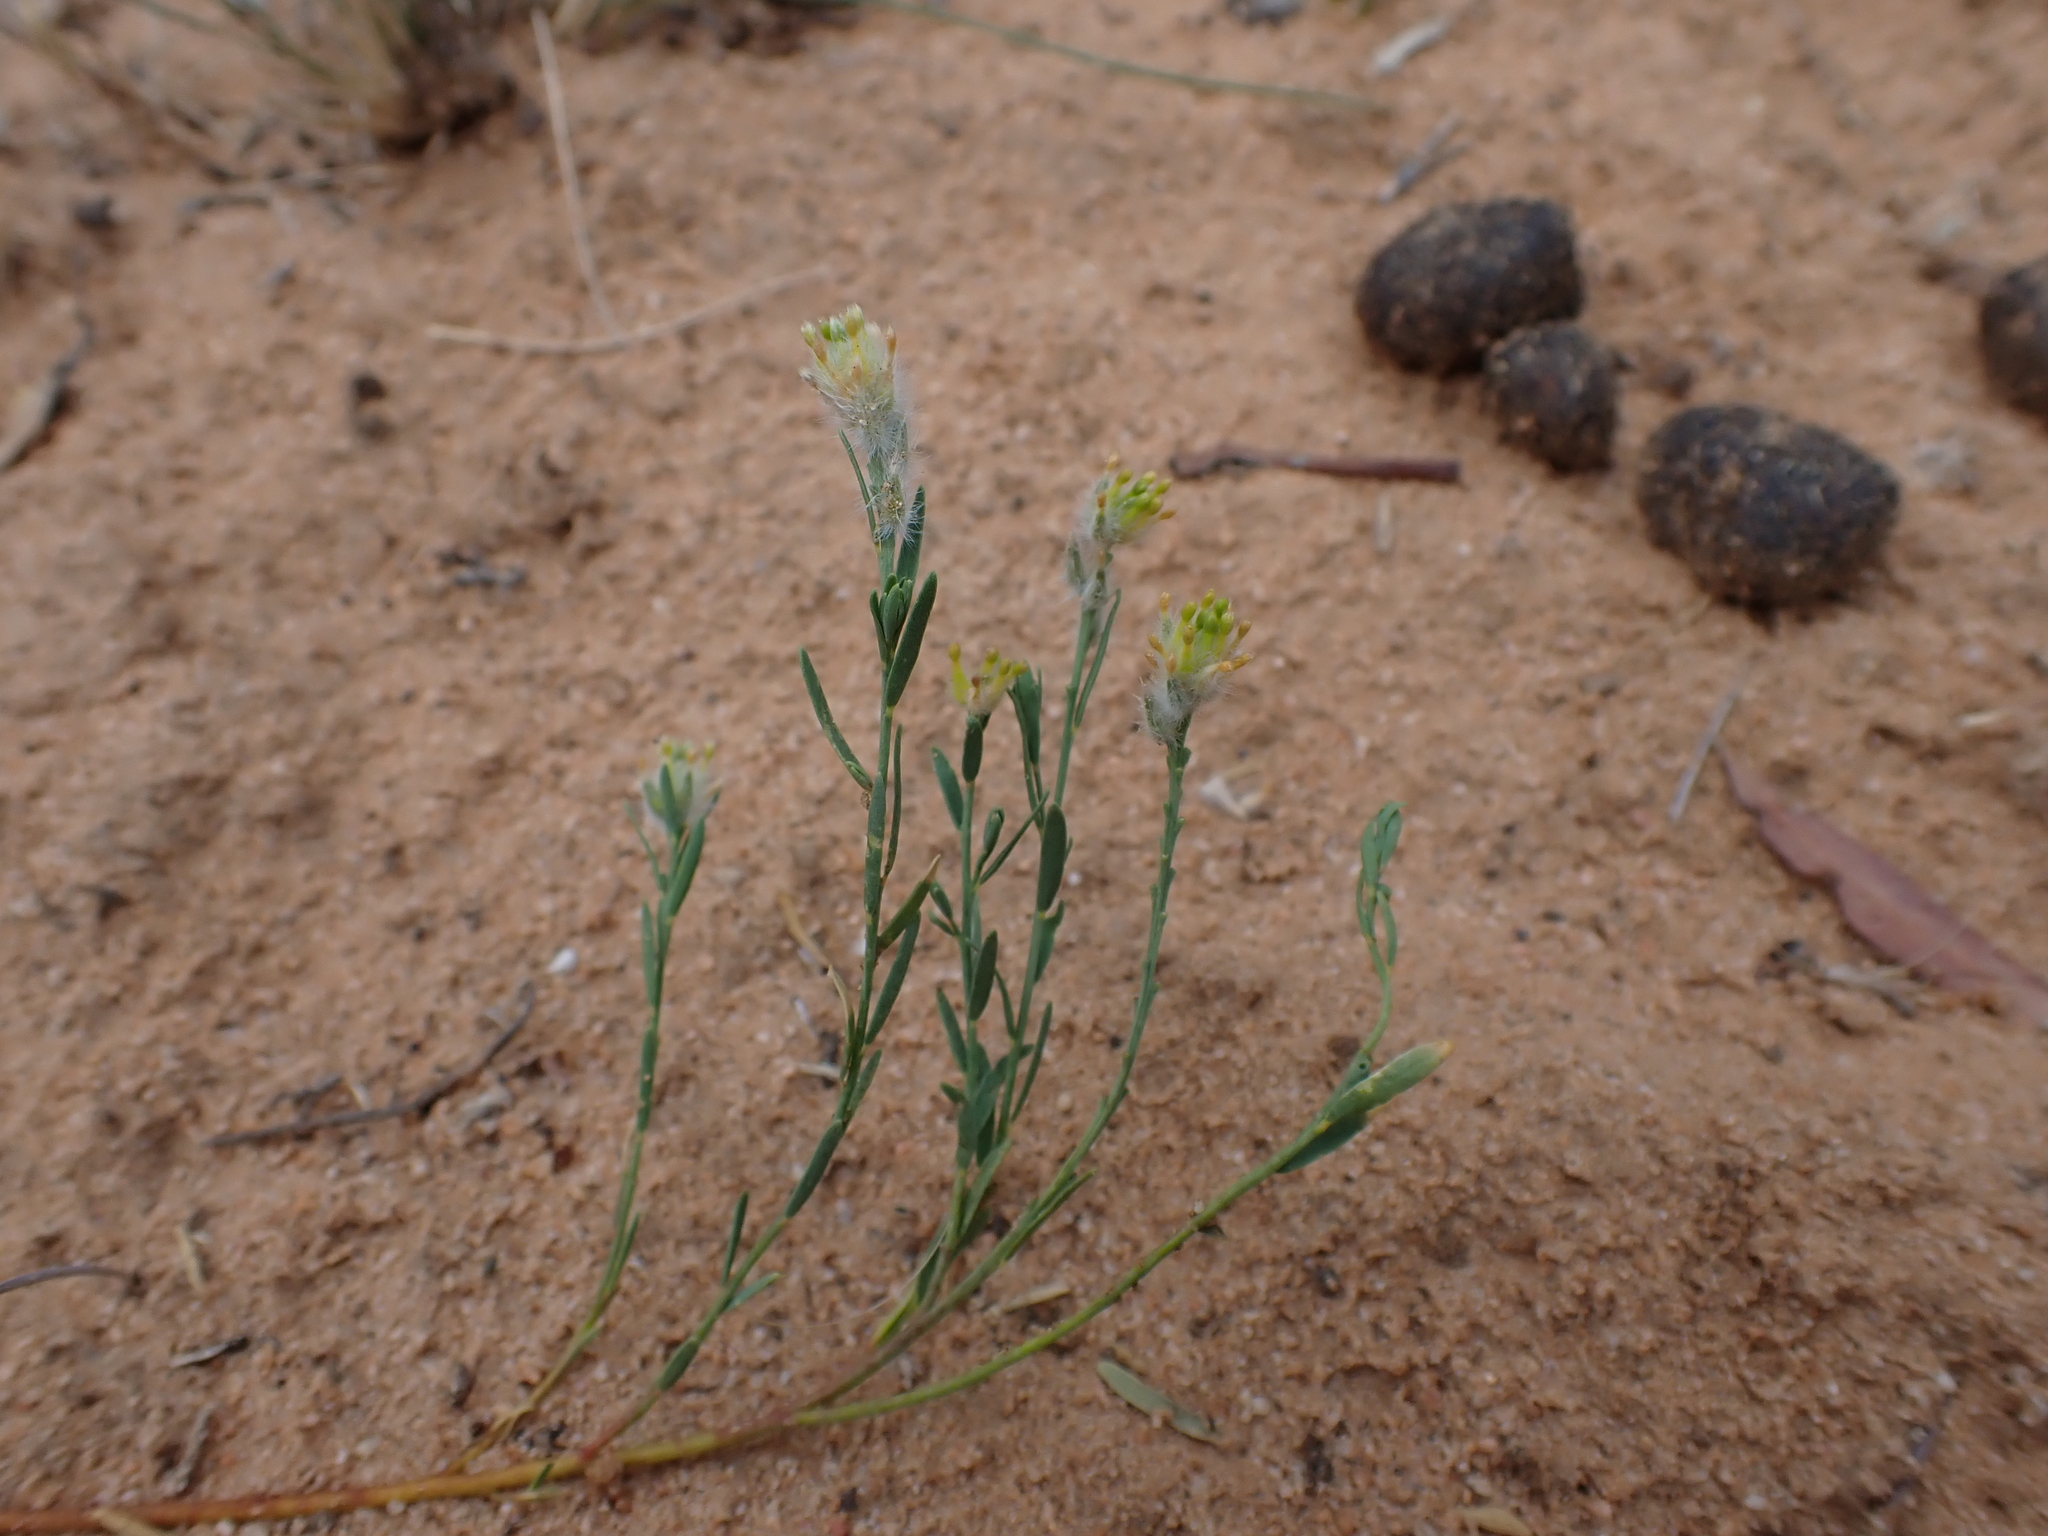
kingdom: Plantae
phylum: Tracheophyta
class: Magnoliopsida
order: Malvales
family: Thymelaeaceae
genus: Pimelea
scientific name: Pimelea trichostachya
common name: Poverty-bush
